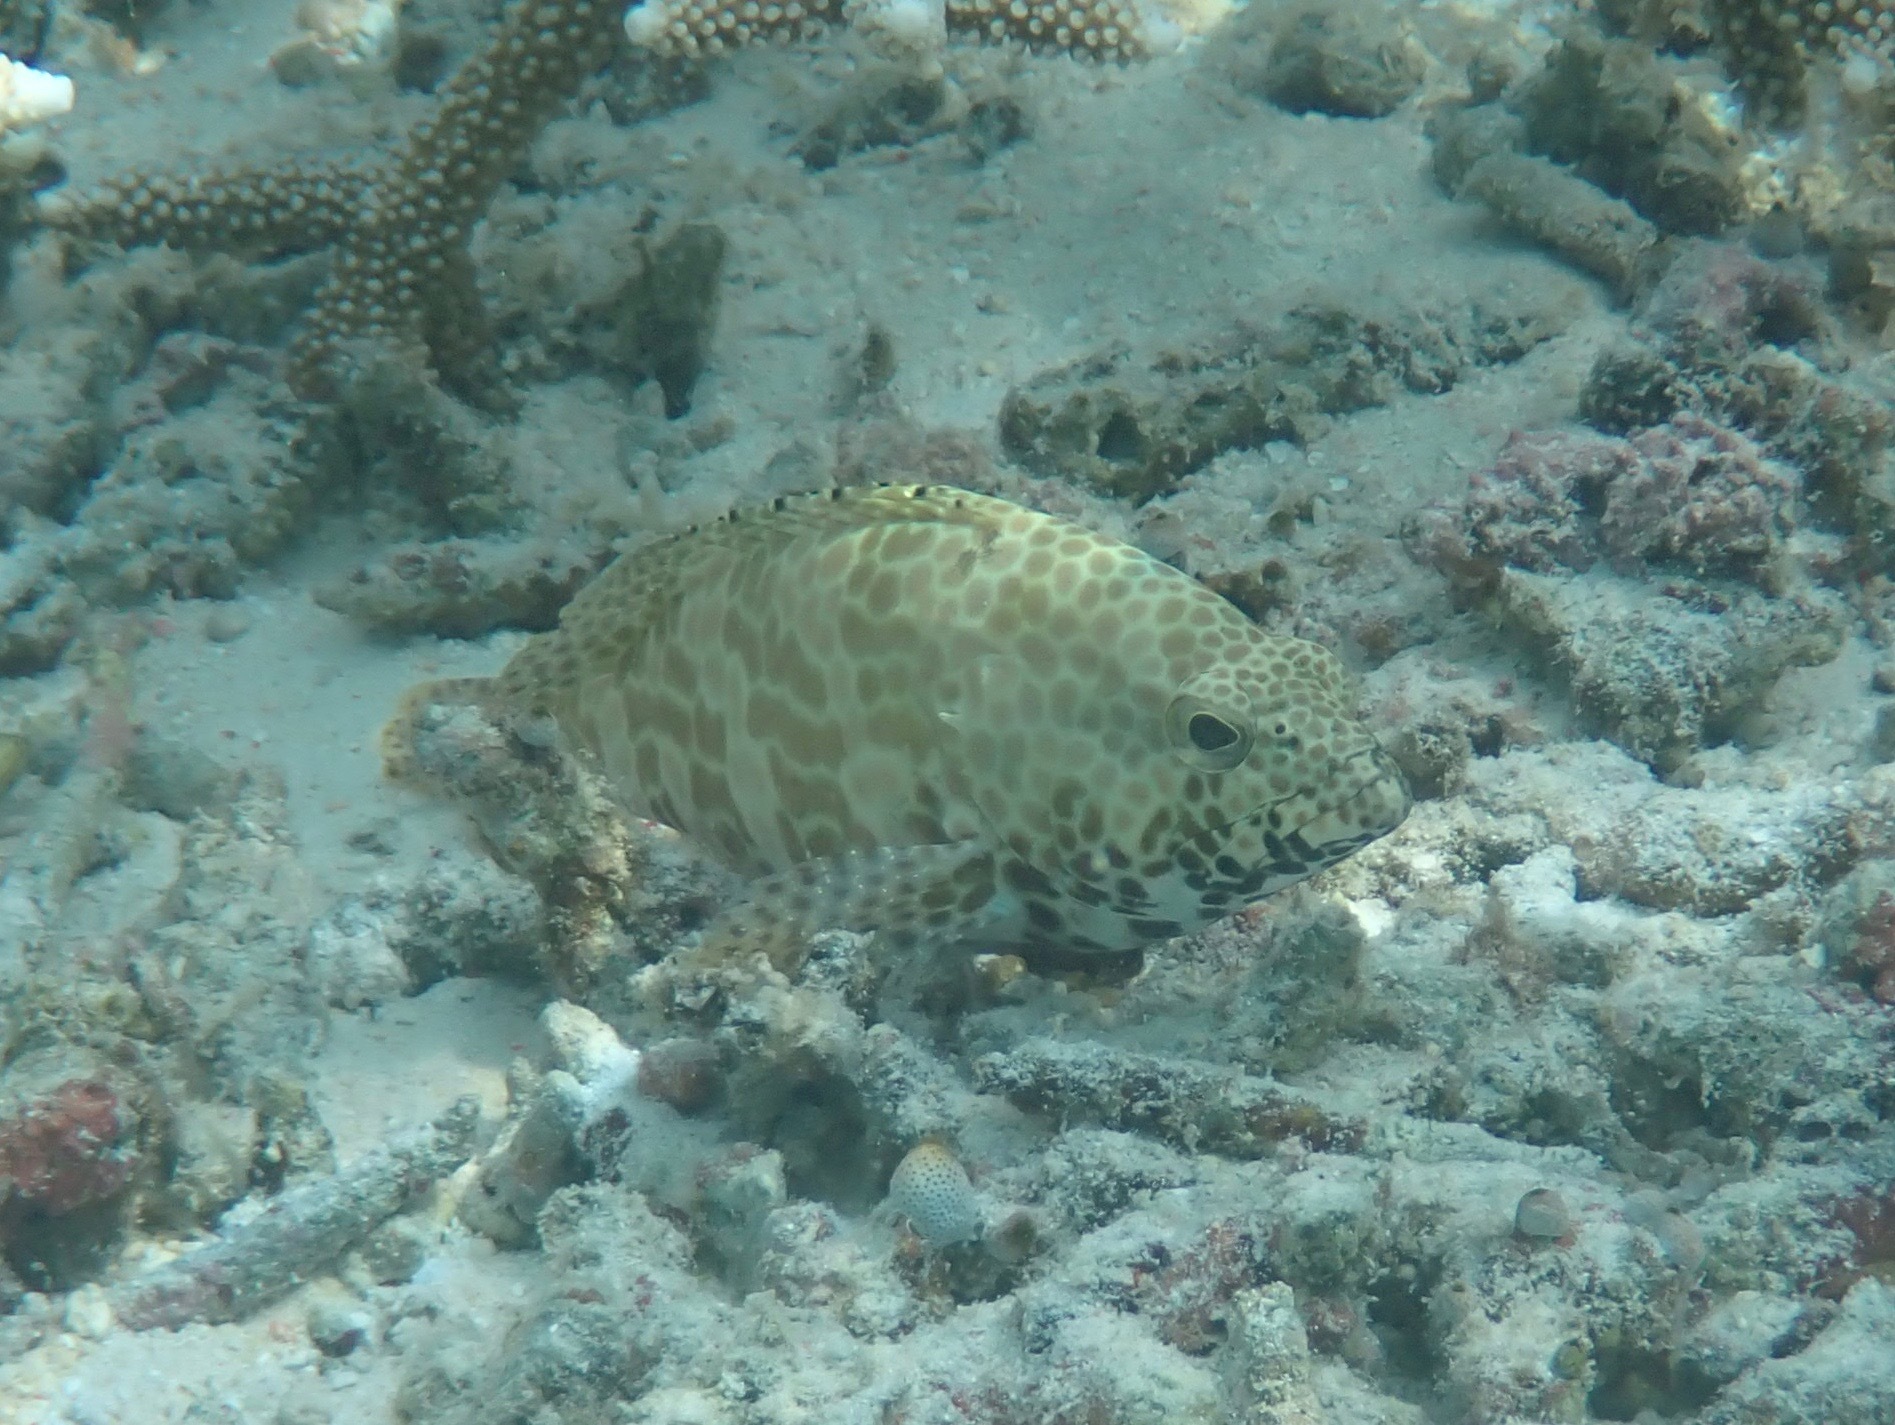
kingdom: Animalia
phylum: Chordata
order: Perciformes
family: Serranidae
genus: Epinephelus
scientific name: Epinephelus merra
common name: Honeycomb grouper
